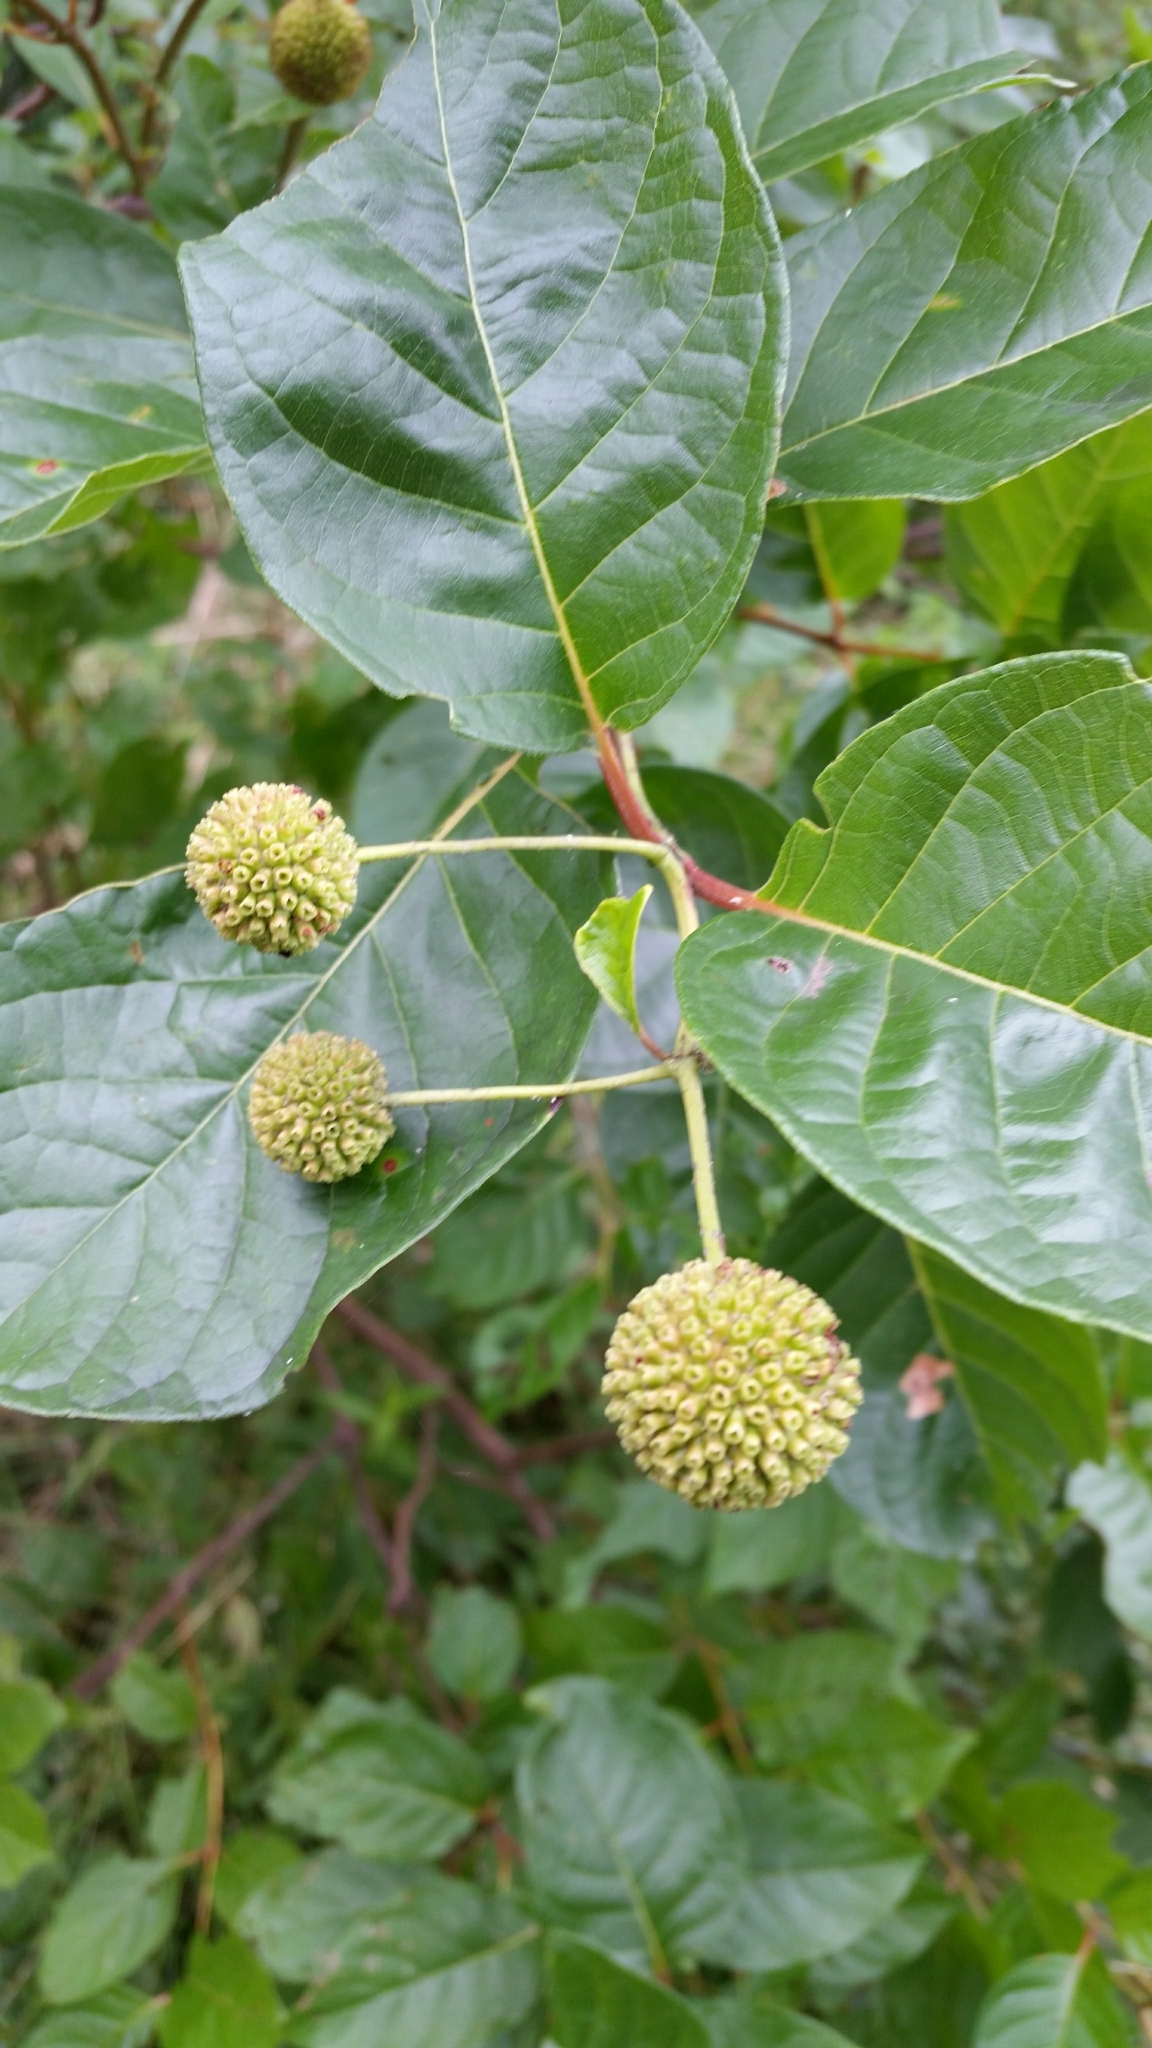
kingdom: Plantae
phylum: Tracheophyta
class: Magnoliopsida
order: Gentianales
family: Rubiaceae
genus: Cephalanthus
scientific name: Cephalanthus occidentalis
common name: Button-willow
